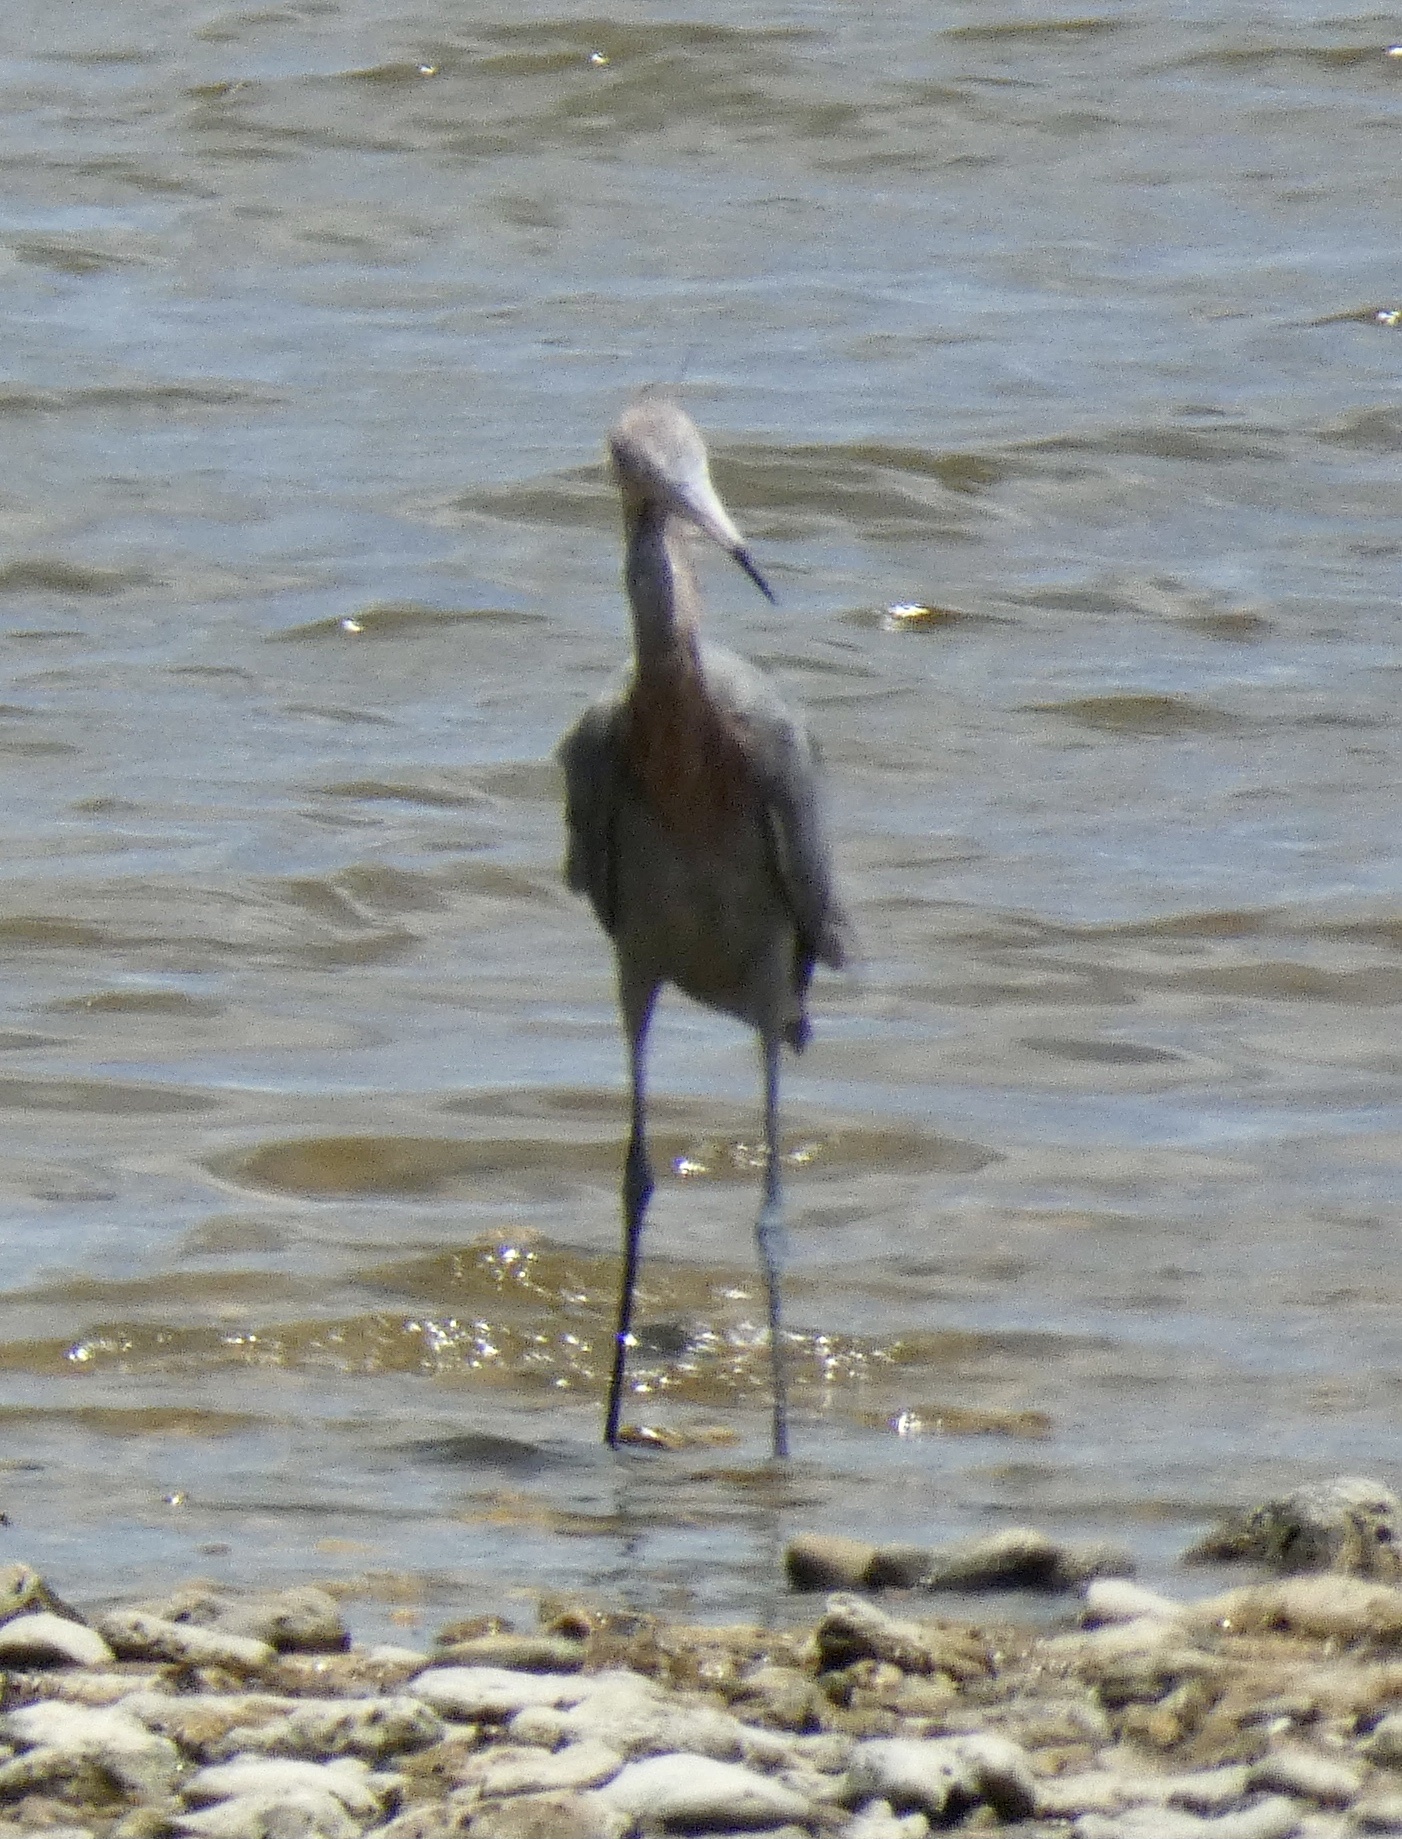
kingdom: Animalia
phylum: Chordata
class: Aves
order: Pelecaniformes
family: Ardeidae
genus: Egretta
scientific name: Egretta rufescens
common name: Reddish egret
